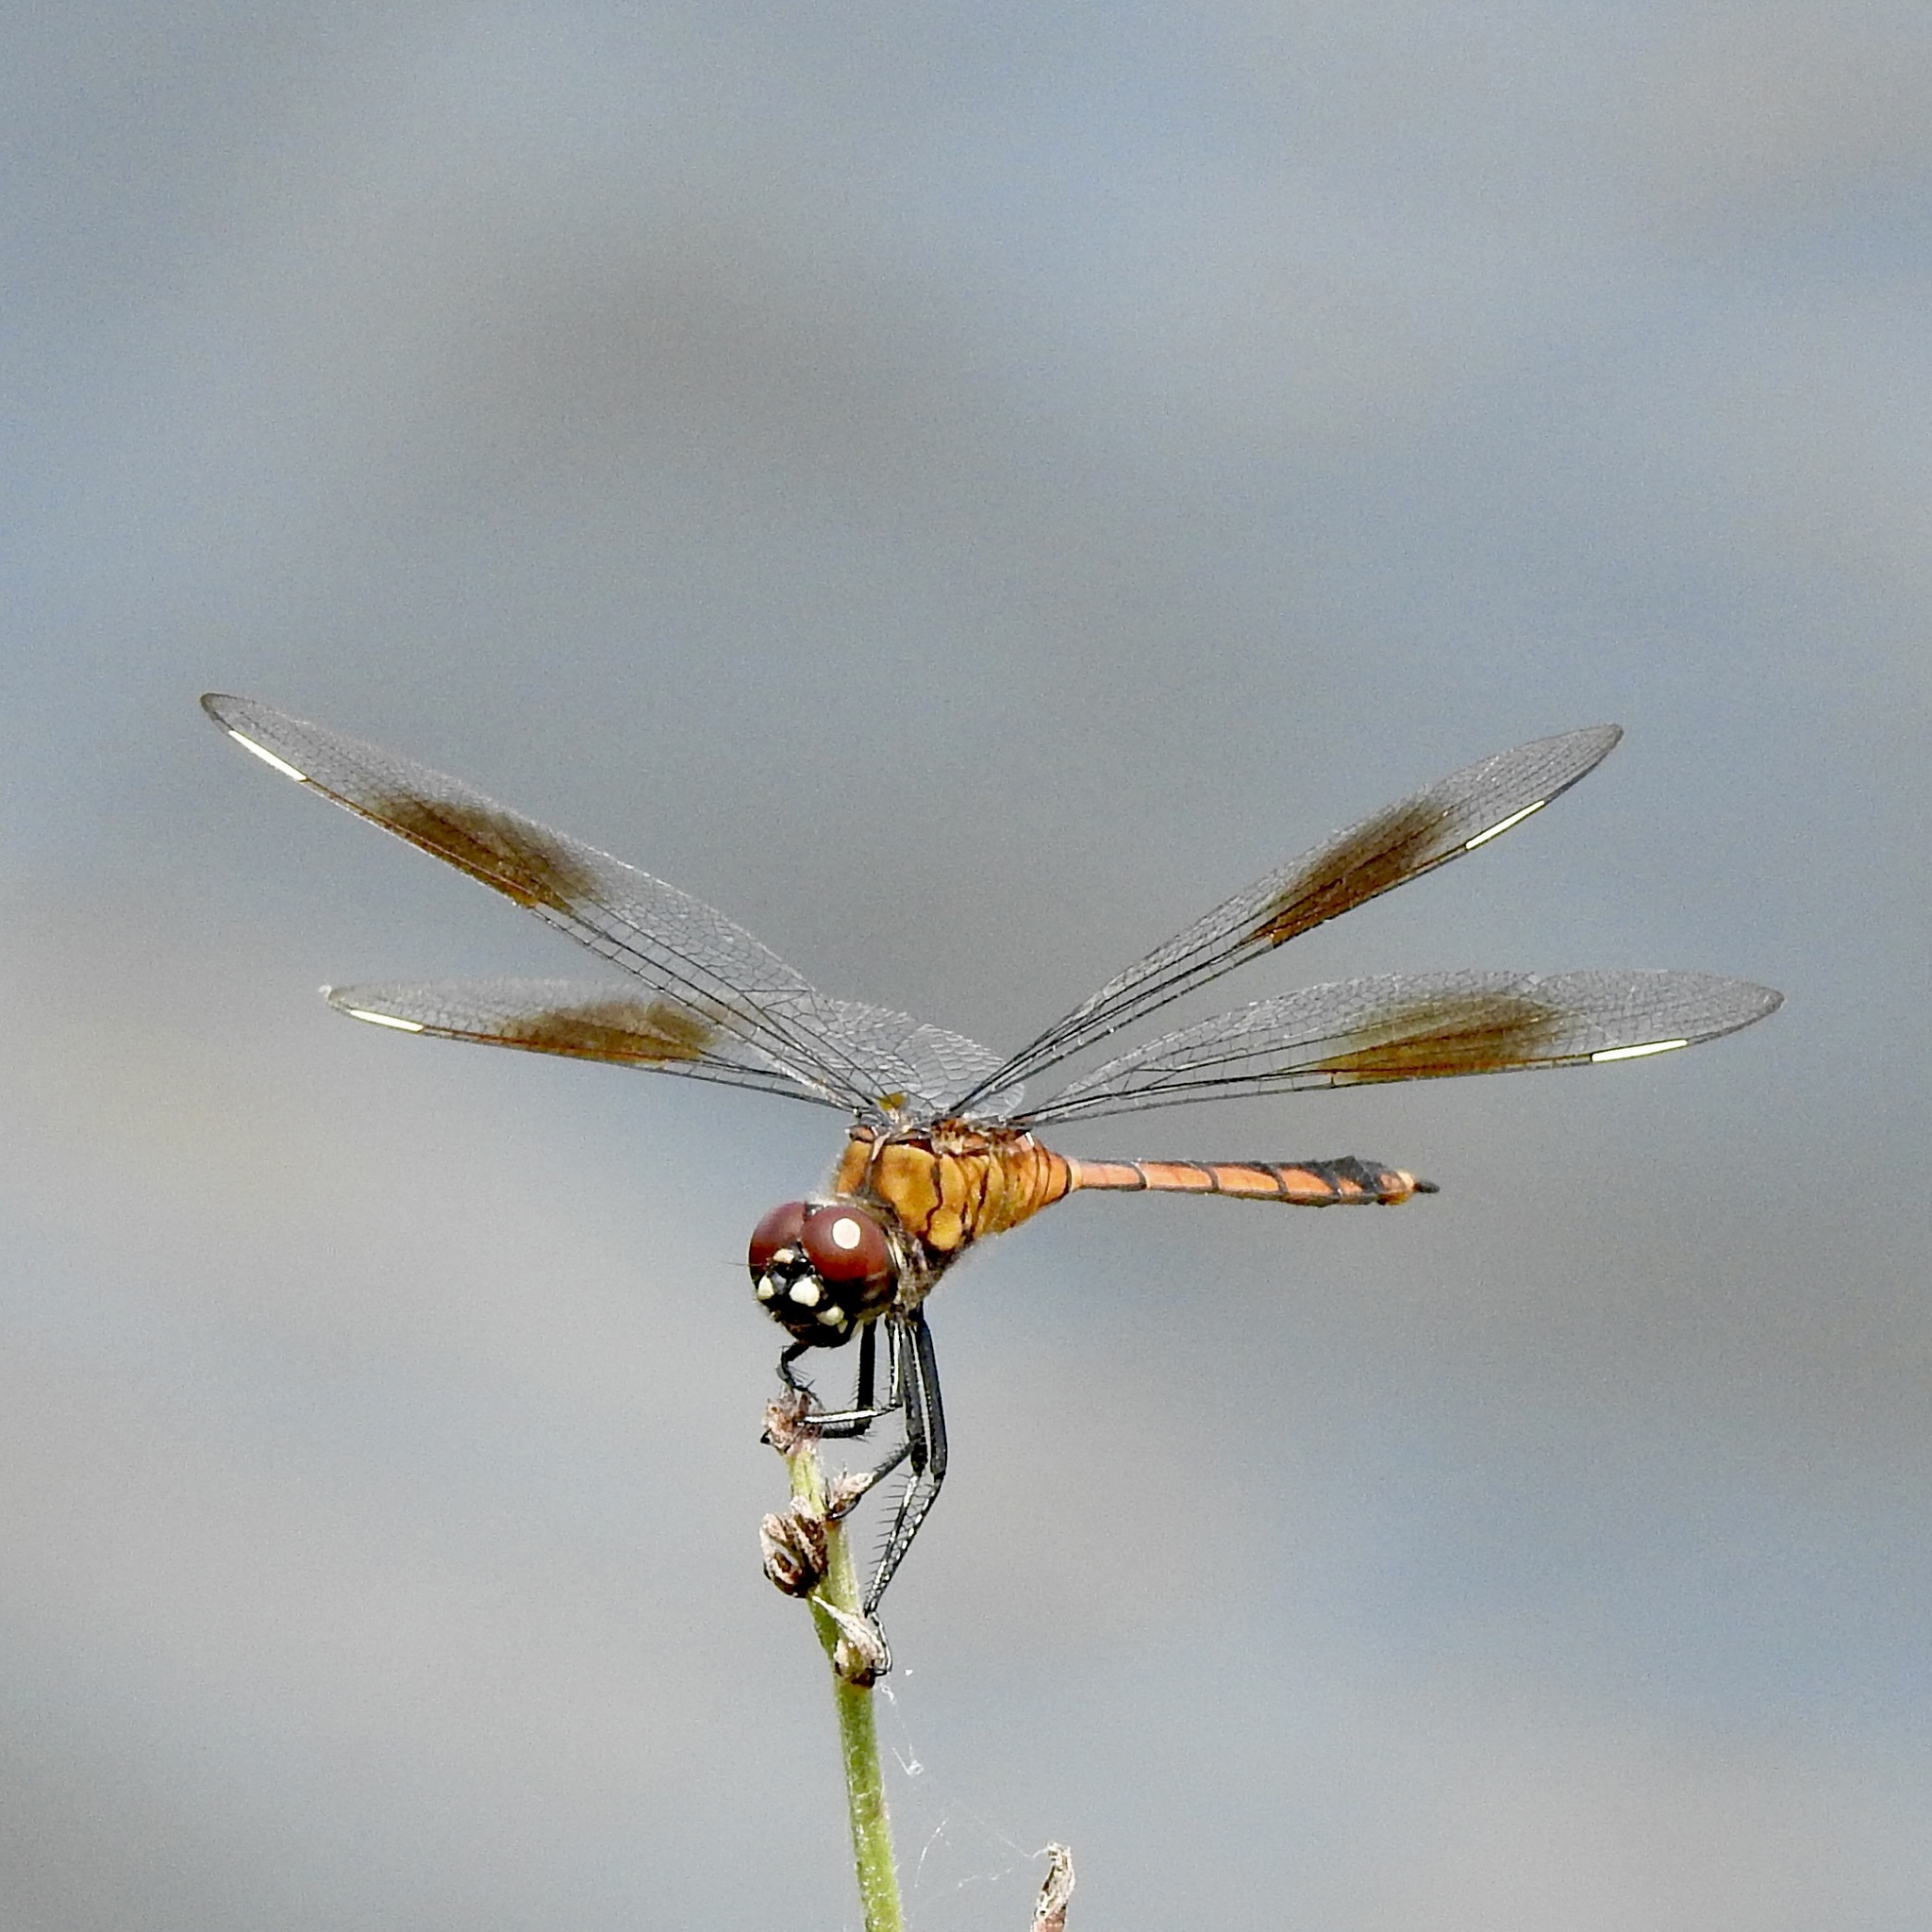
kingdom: Animalia
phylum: Arthropoda
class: Insecta
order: Odonata
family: Libellulidae
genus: Brachymesia
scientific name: Brachymesia gravida
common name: Four-spotted pennant
